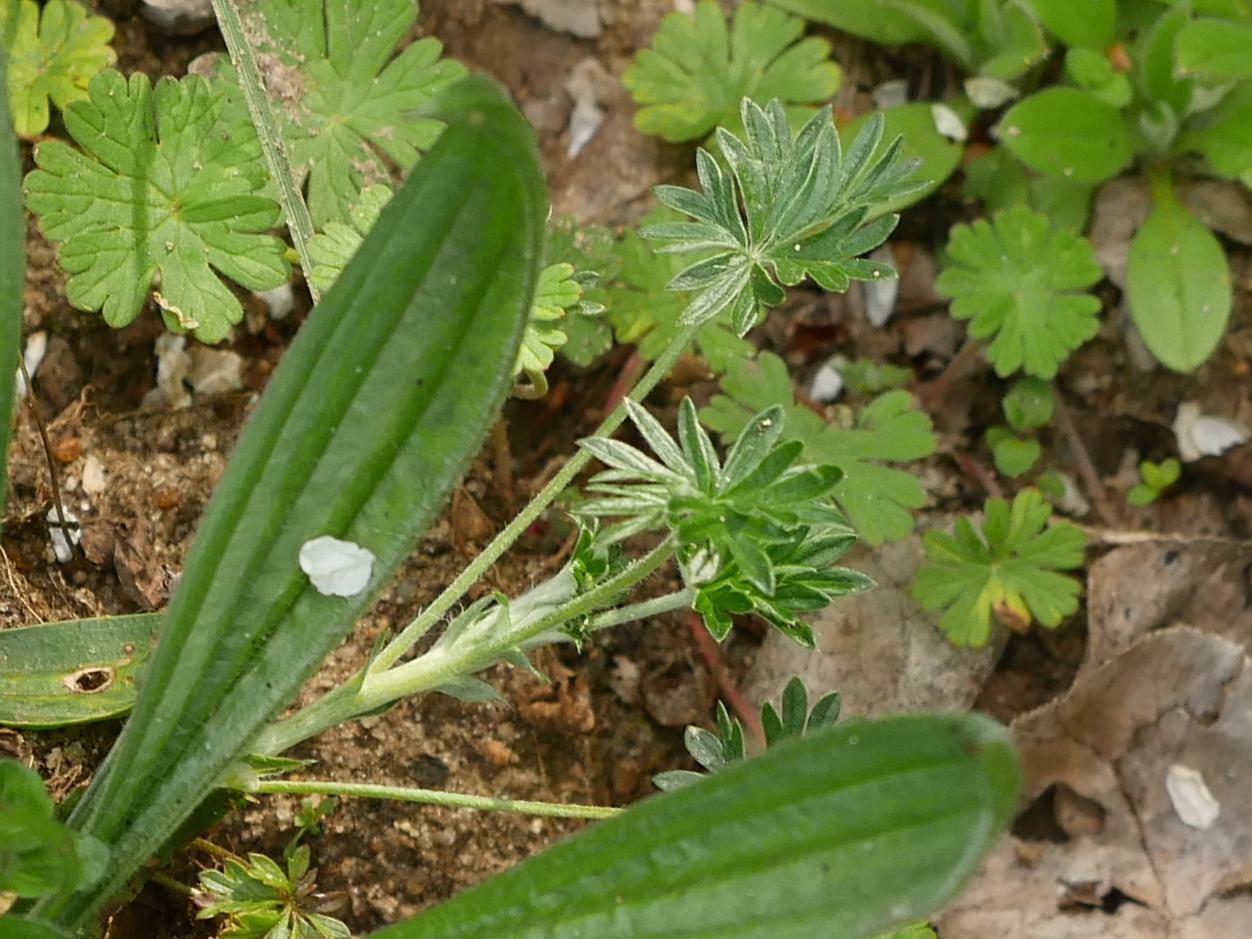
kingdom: Plantae
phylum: Tracheophyta
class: Magnoliopsida
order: Rosales
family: Rosaceae
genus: Potentilla
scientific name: Potentilla argentea
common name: Hoary cinquefoil
